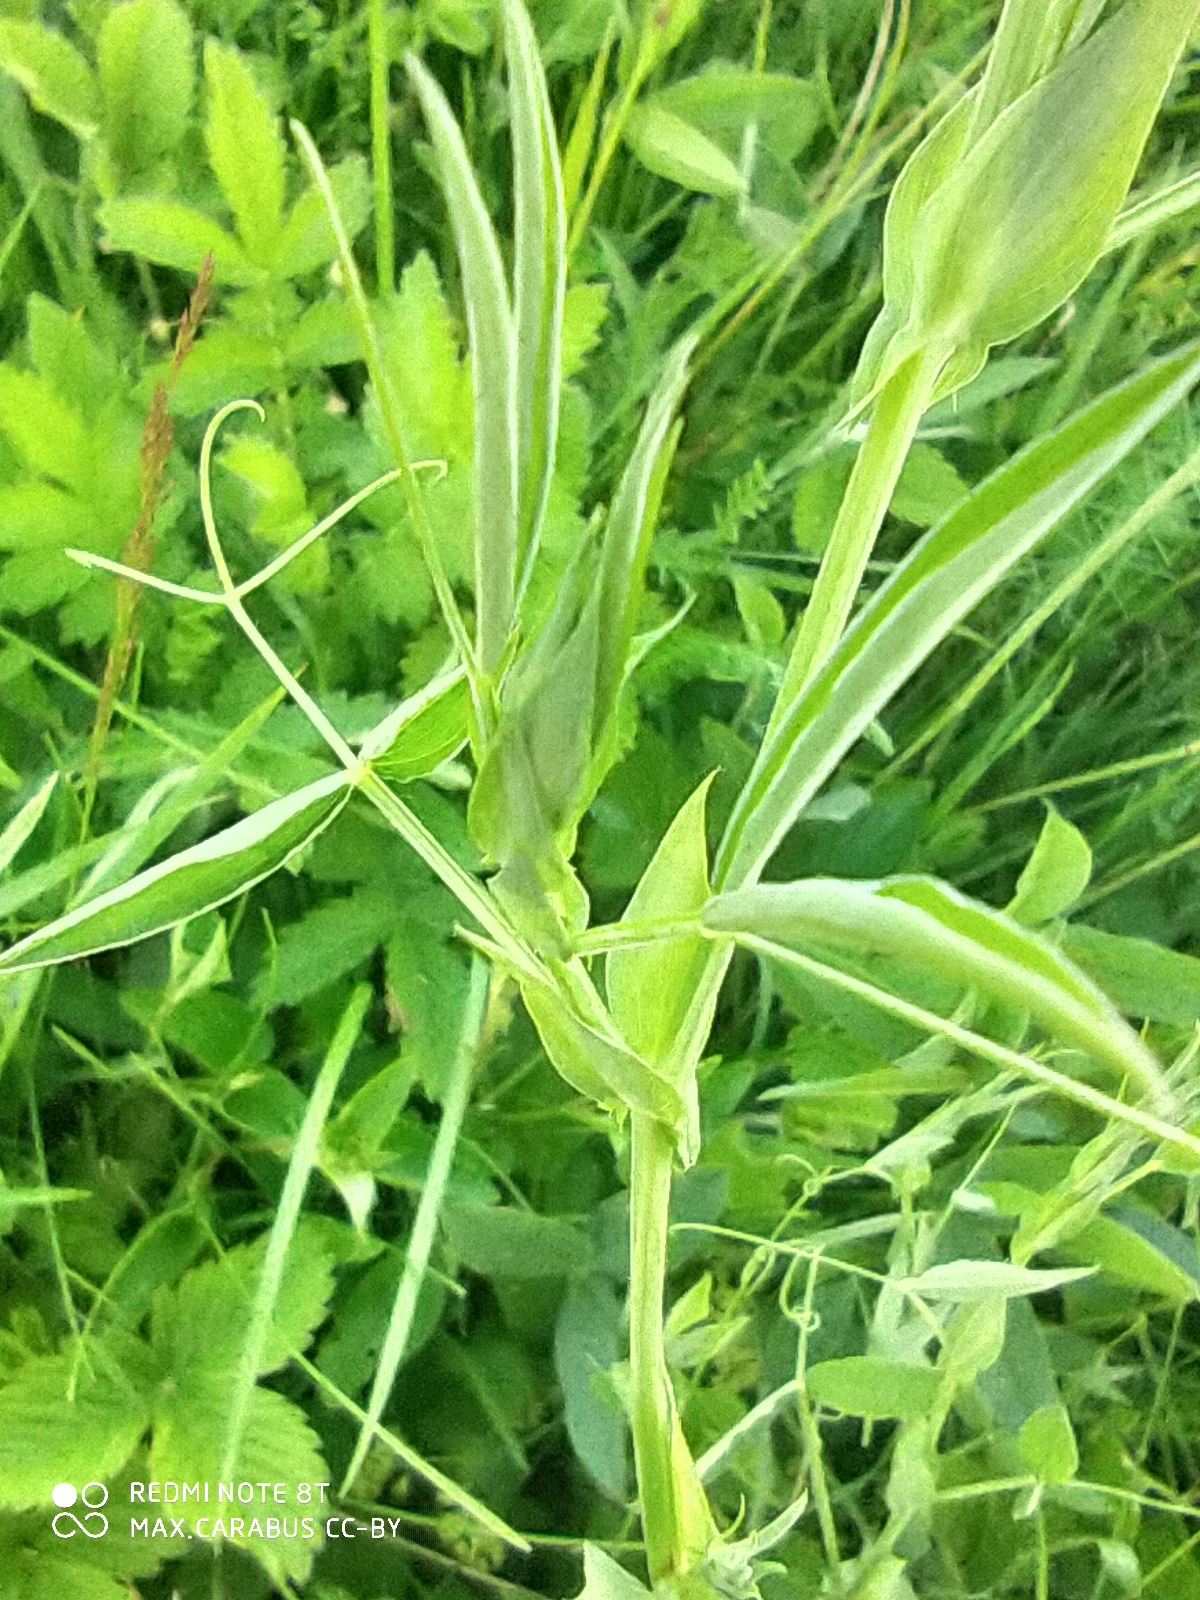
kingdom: Plantae
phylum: Tracheophyta
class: Magnoliopsida
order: Fabales
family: Fabaceae
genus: Lathyrus
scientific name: Lathyrus pratensis
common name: Meadow vetchling
